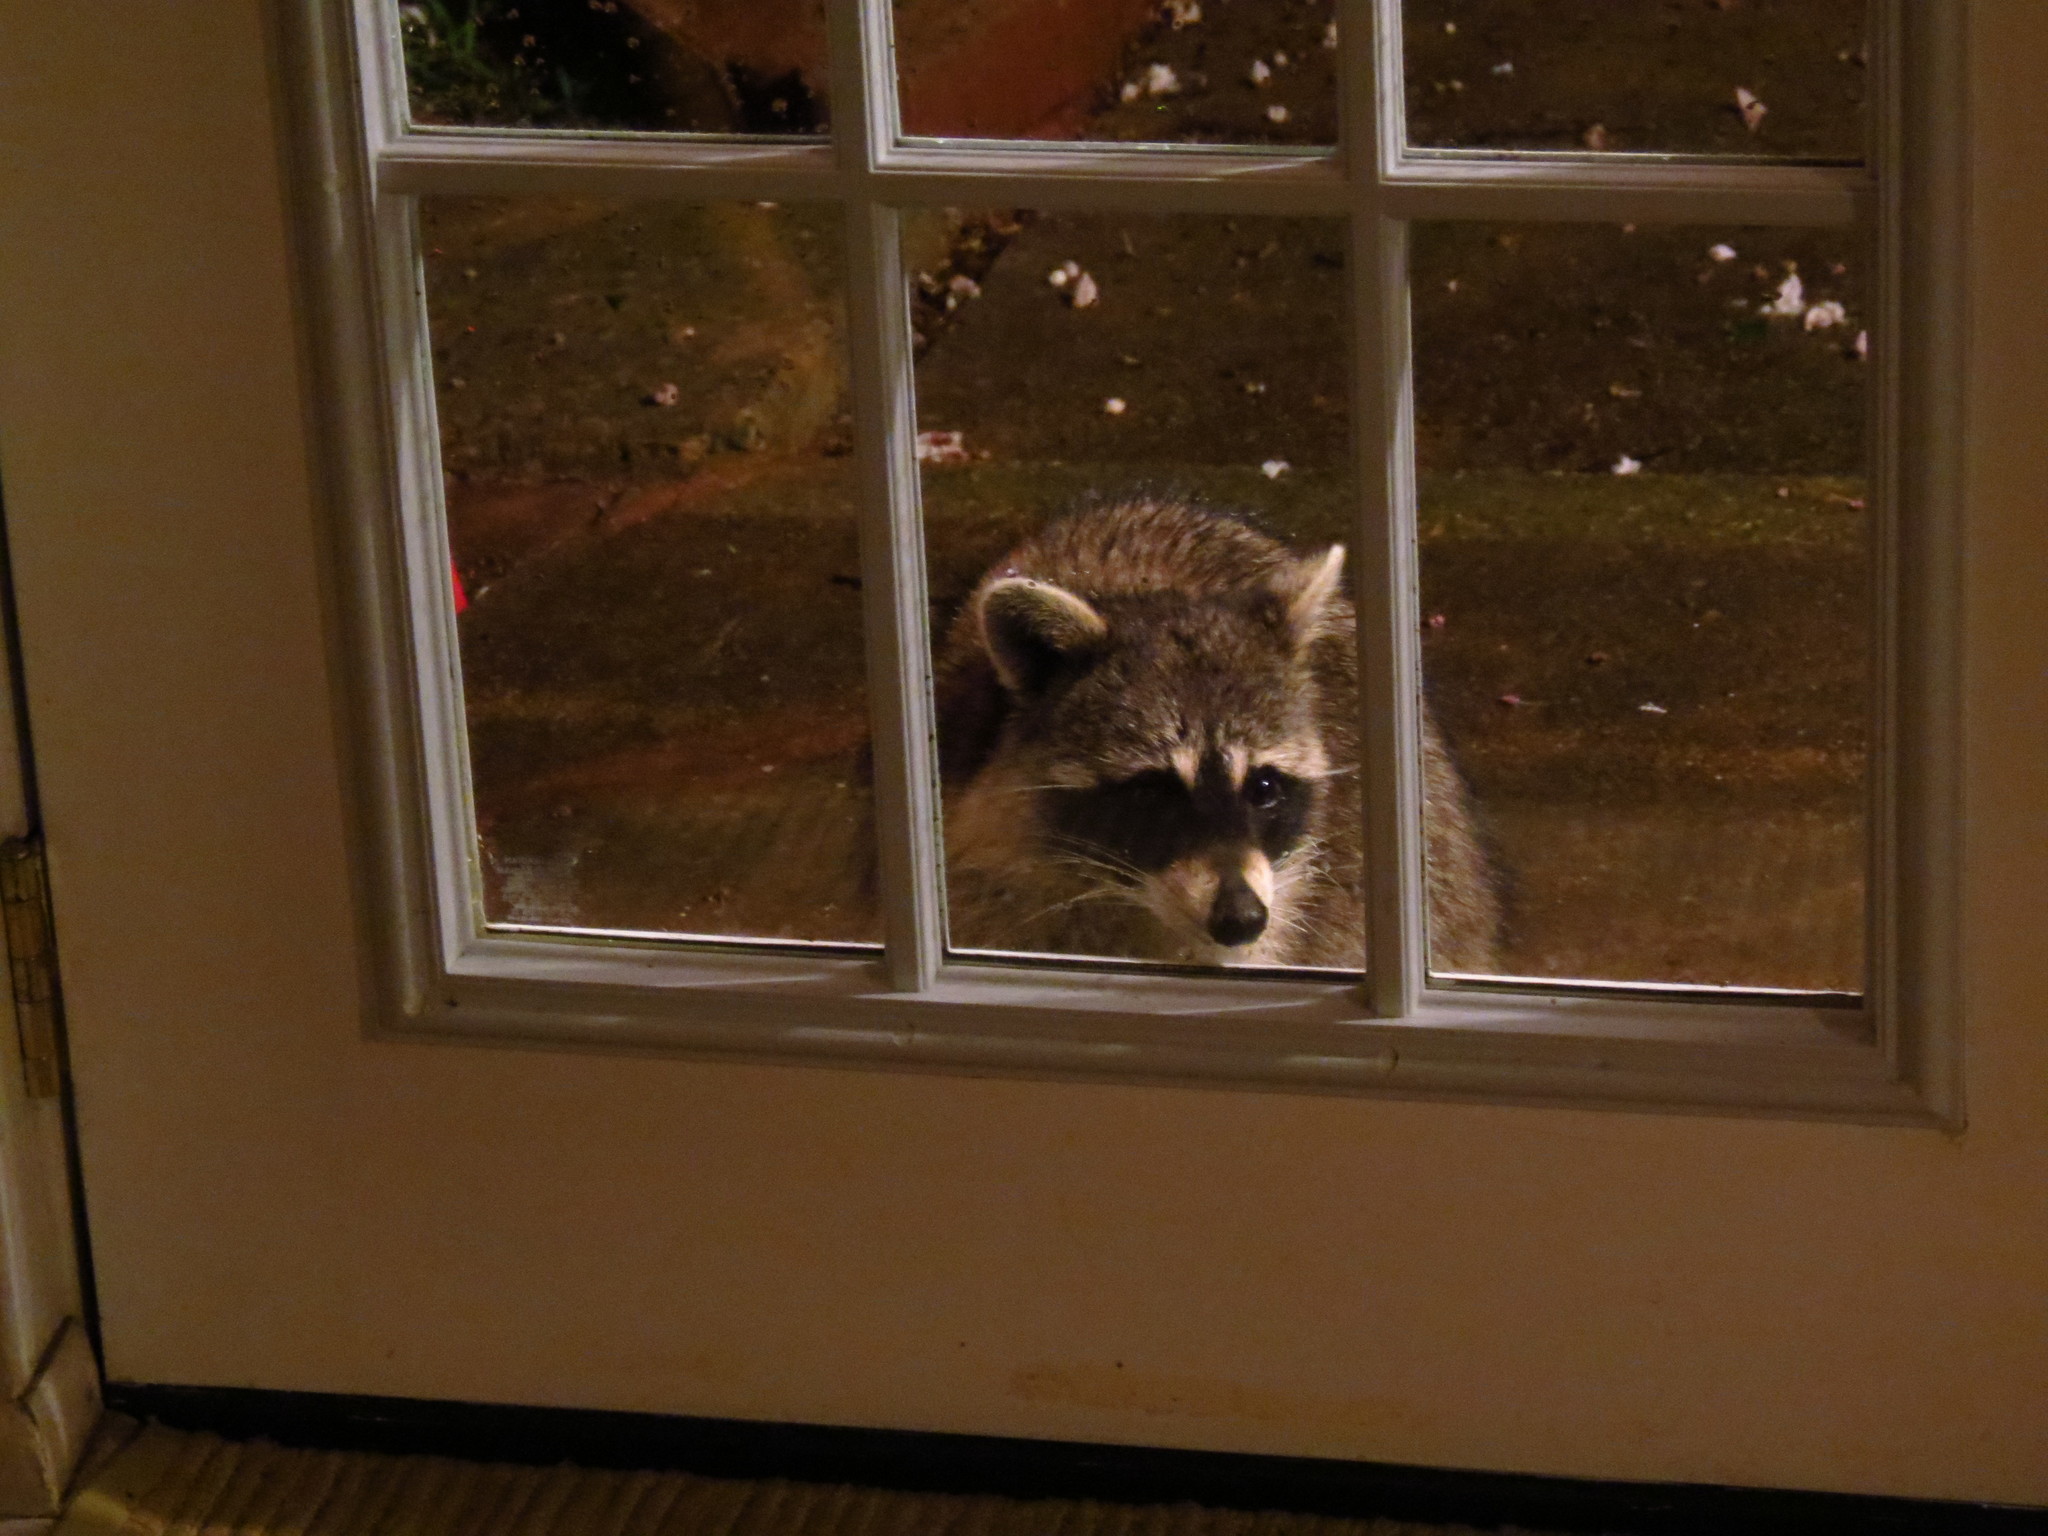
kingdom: Animalia
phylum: Chordata
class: Mammalia
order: Carnivora
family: Procyonidae
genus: Procyon
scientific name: Procyon lotor
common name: Raccoon
